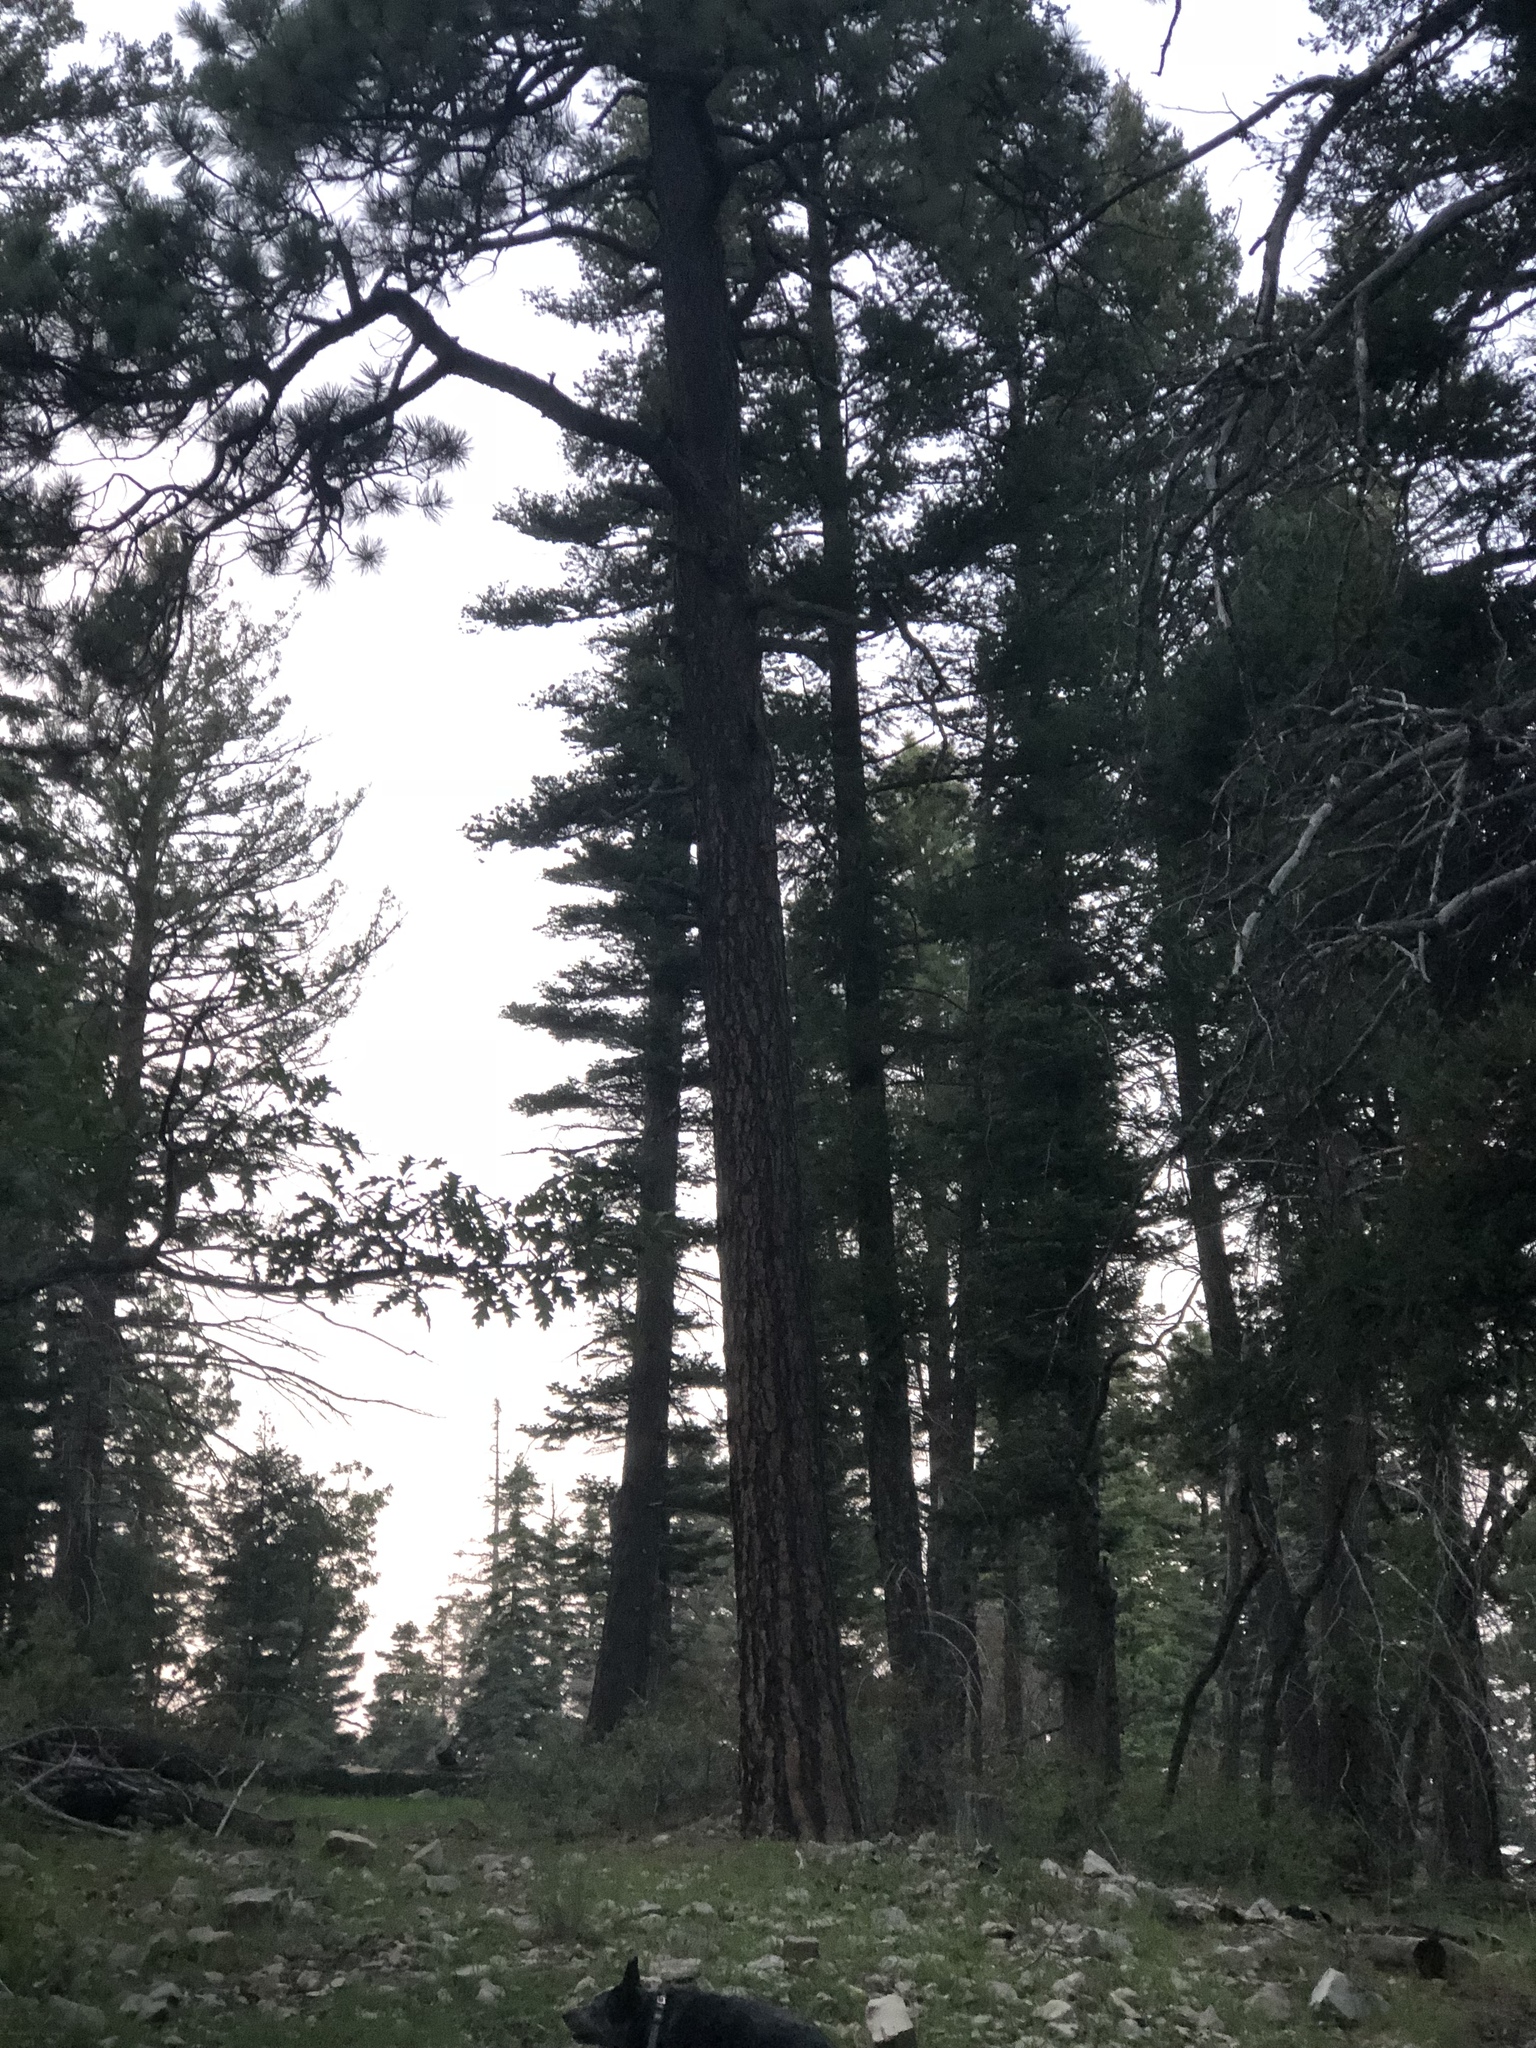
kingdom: Plantae
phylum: Tracheophyta
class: Pinopsida
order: Pinales
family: Pinaceae
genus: Pinus
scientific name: Pinus ponderosa
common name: Western yellow-pine
